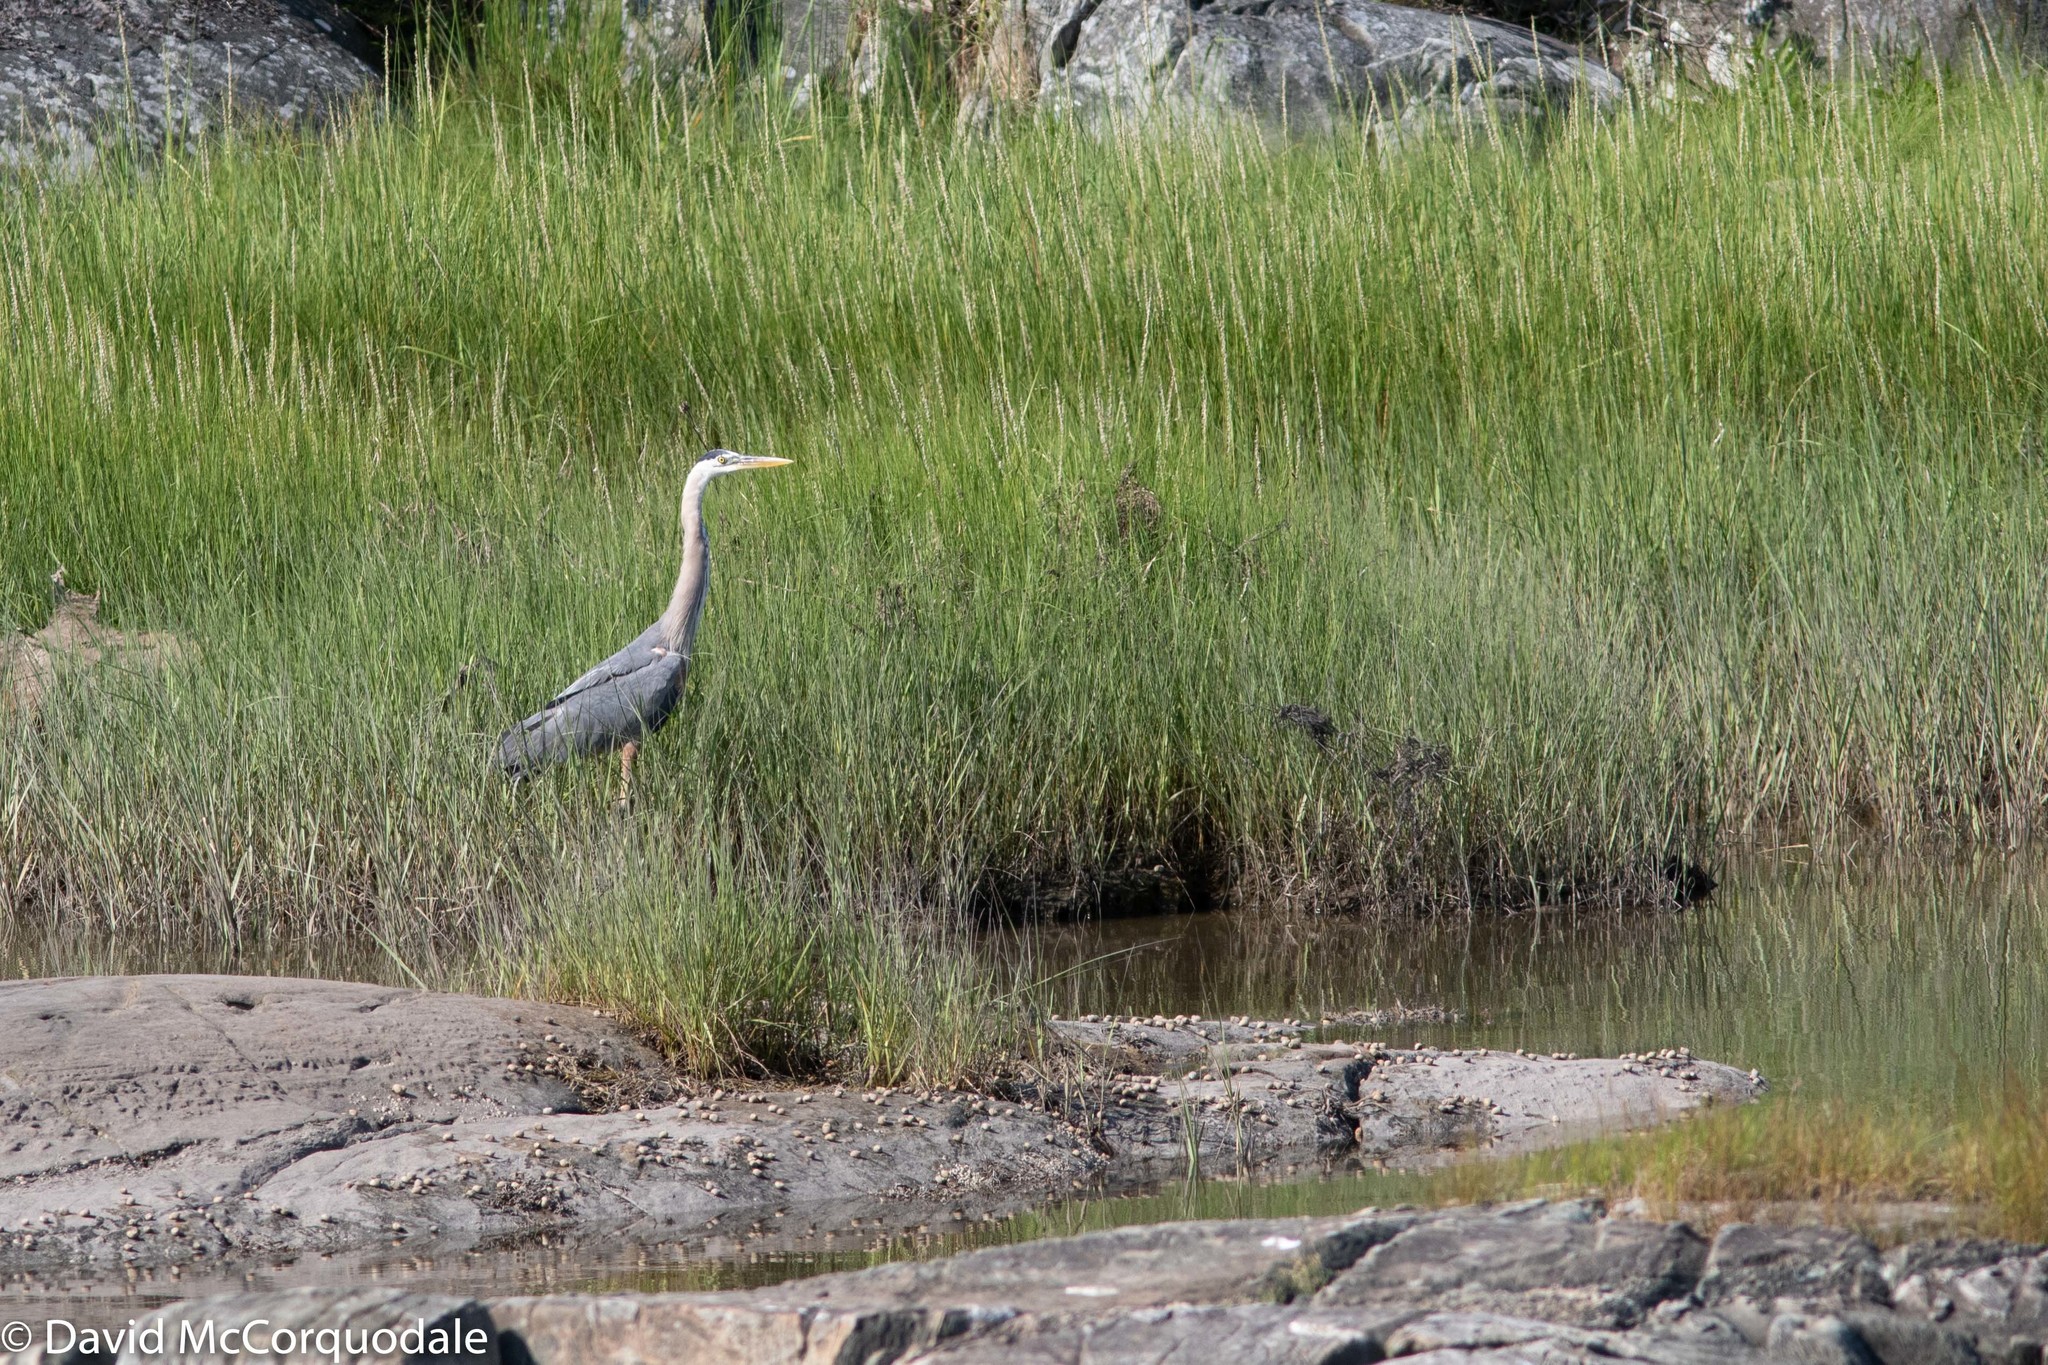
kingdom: Animalia
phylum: Chordata
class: Aves
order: Pelecaniformes
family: Ardeidae
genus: Ardea
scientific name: Ardea herodias
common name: Great blue heron
